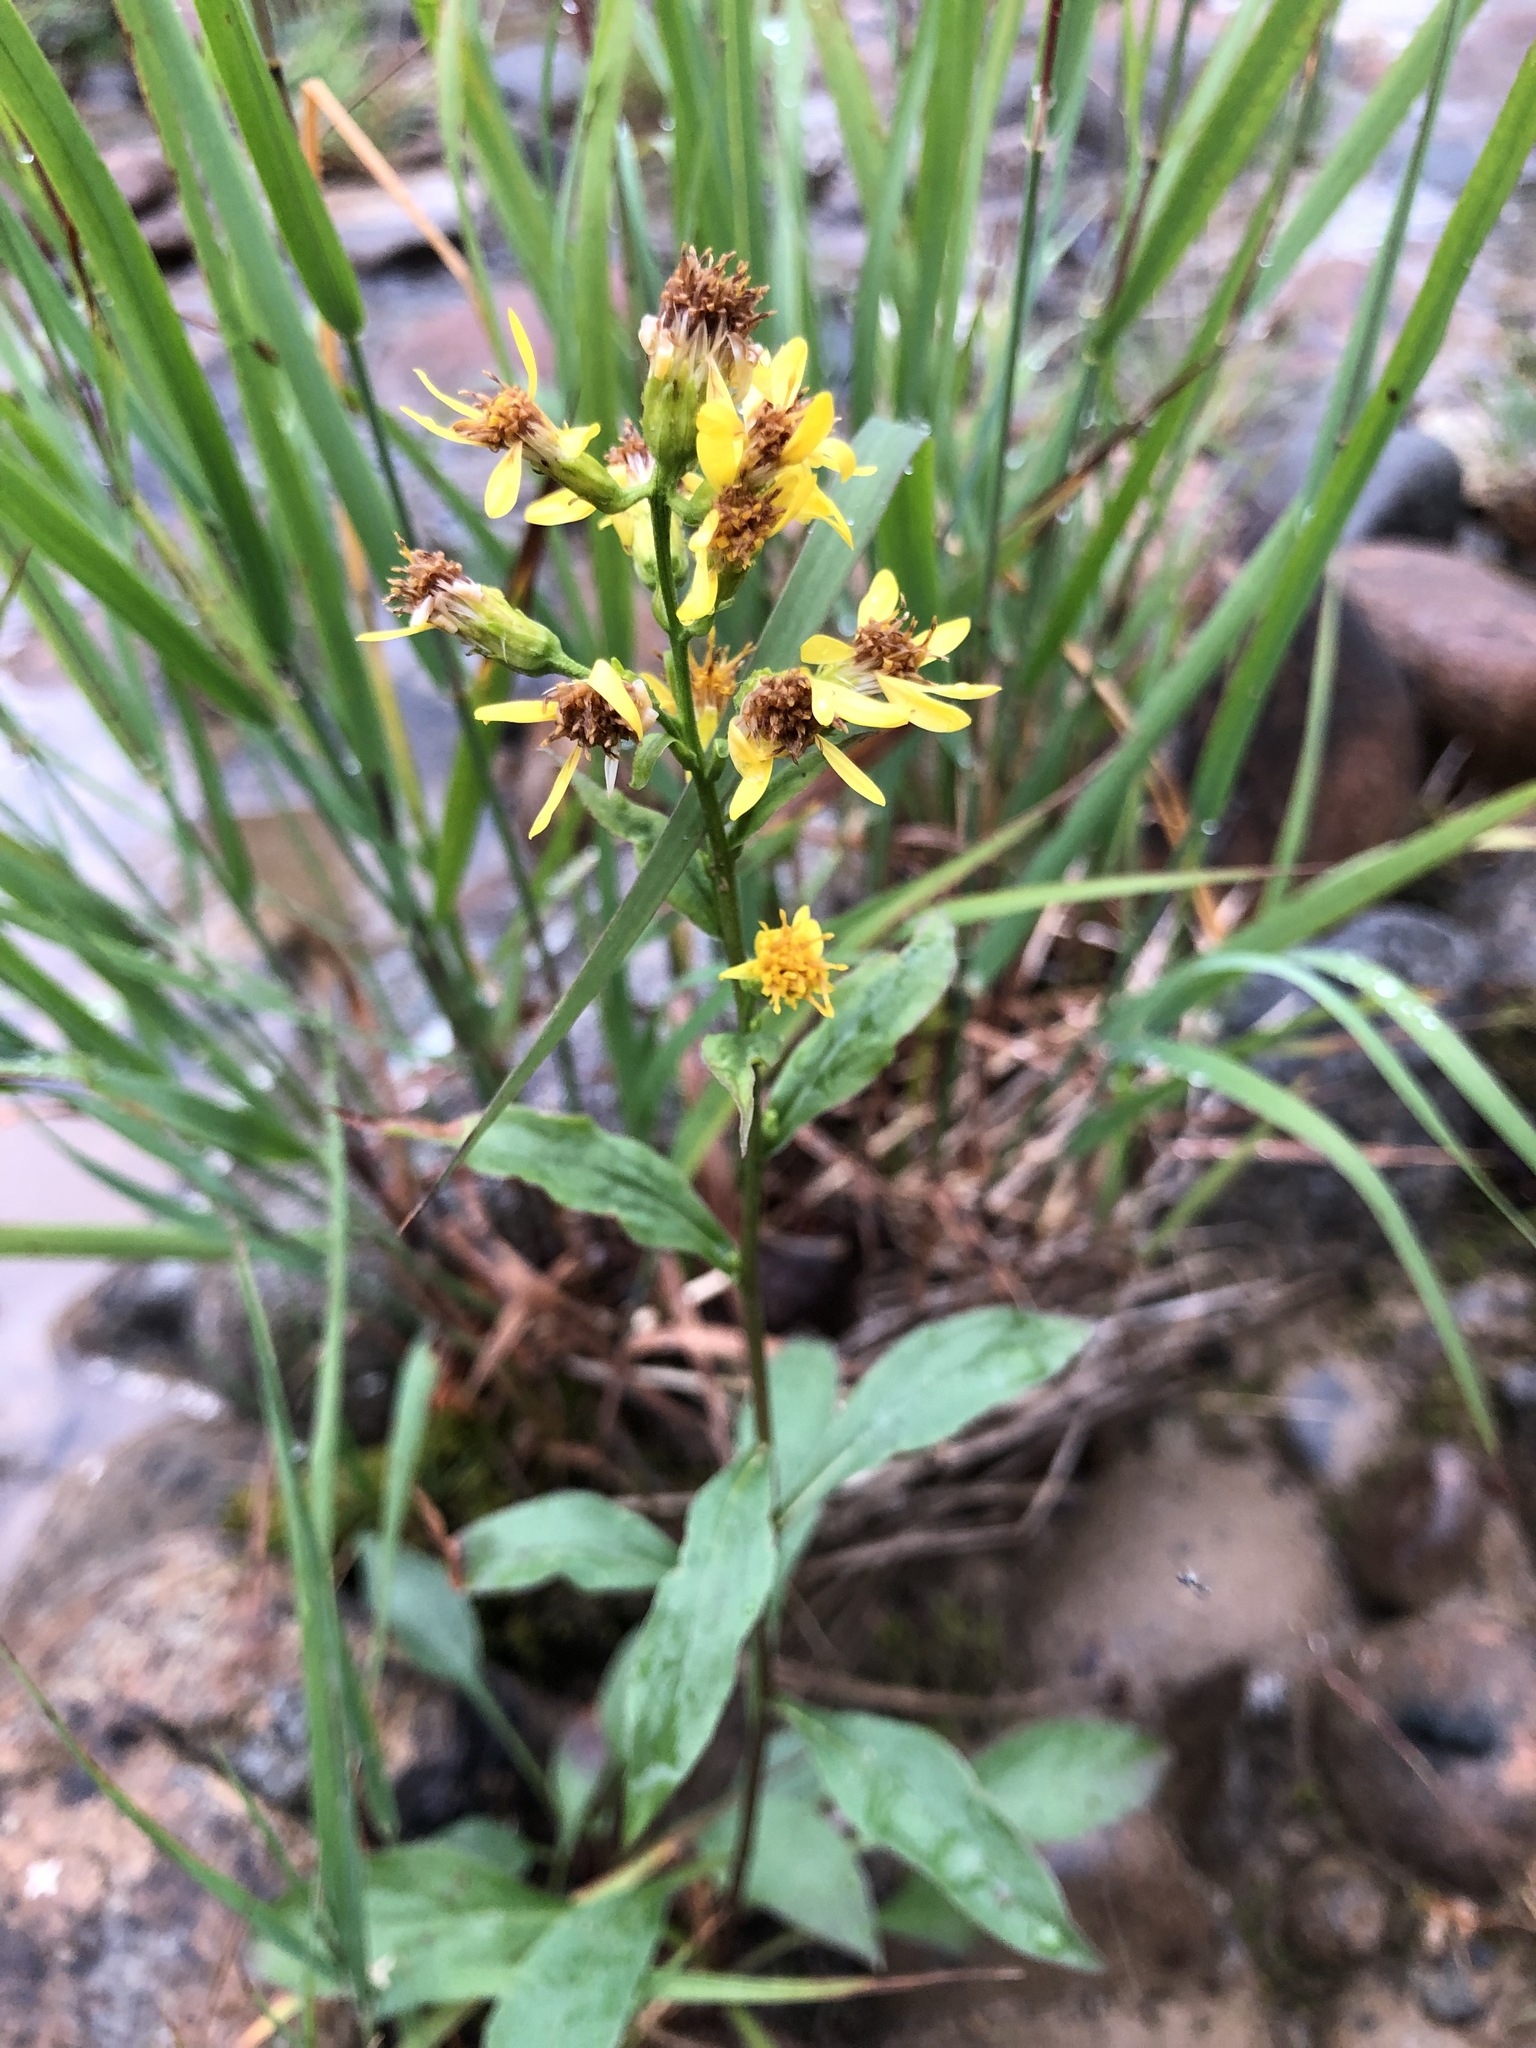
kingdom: Plantae
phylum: Tracheophyta
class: Magnoliopsida
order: Asterales
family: Asteraceae
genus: Solidago
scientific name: Solidago virgaurea
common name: Goldenrod
